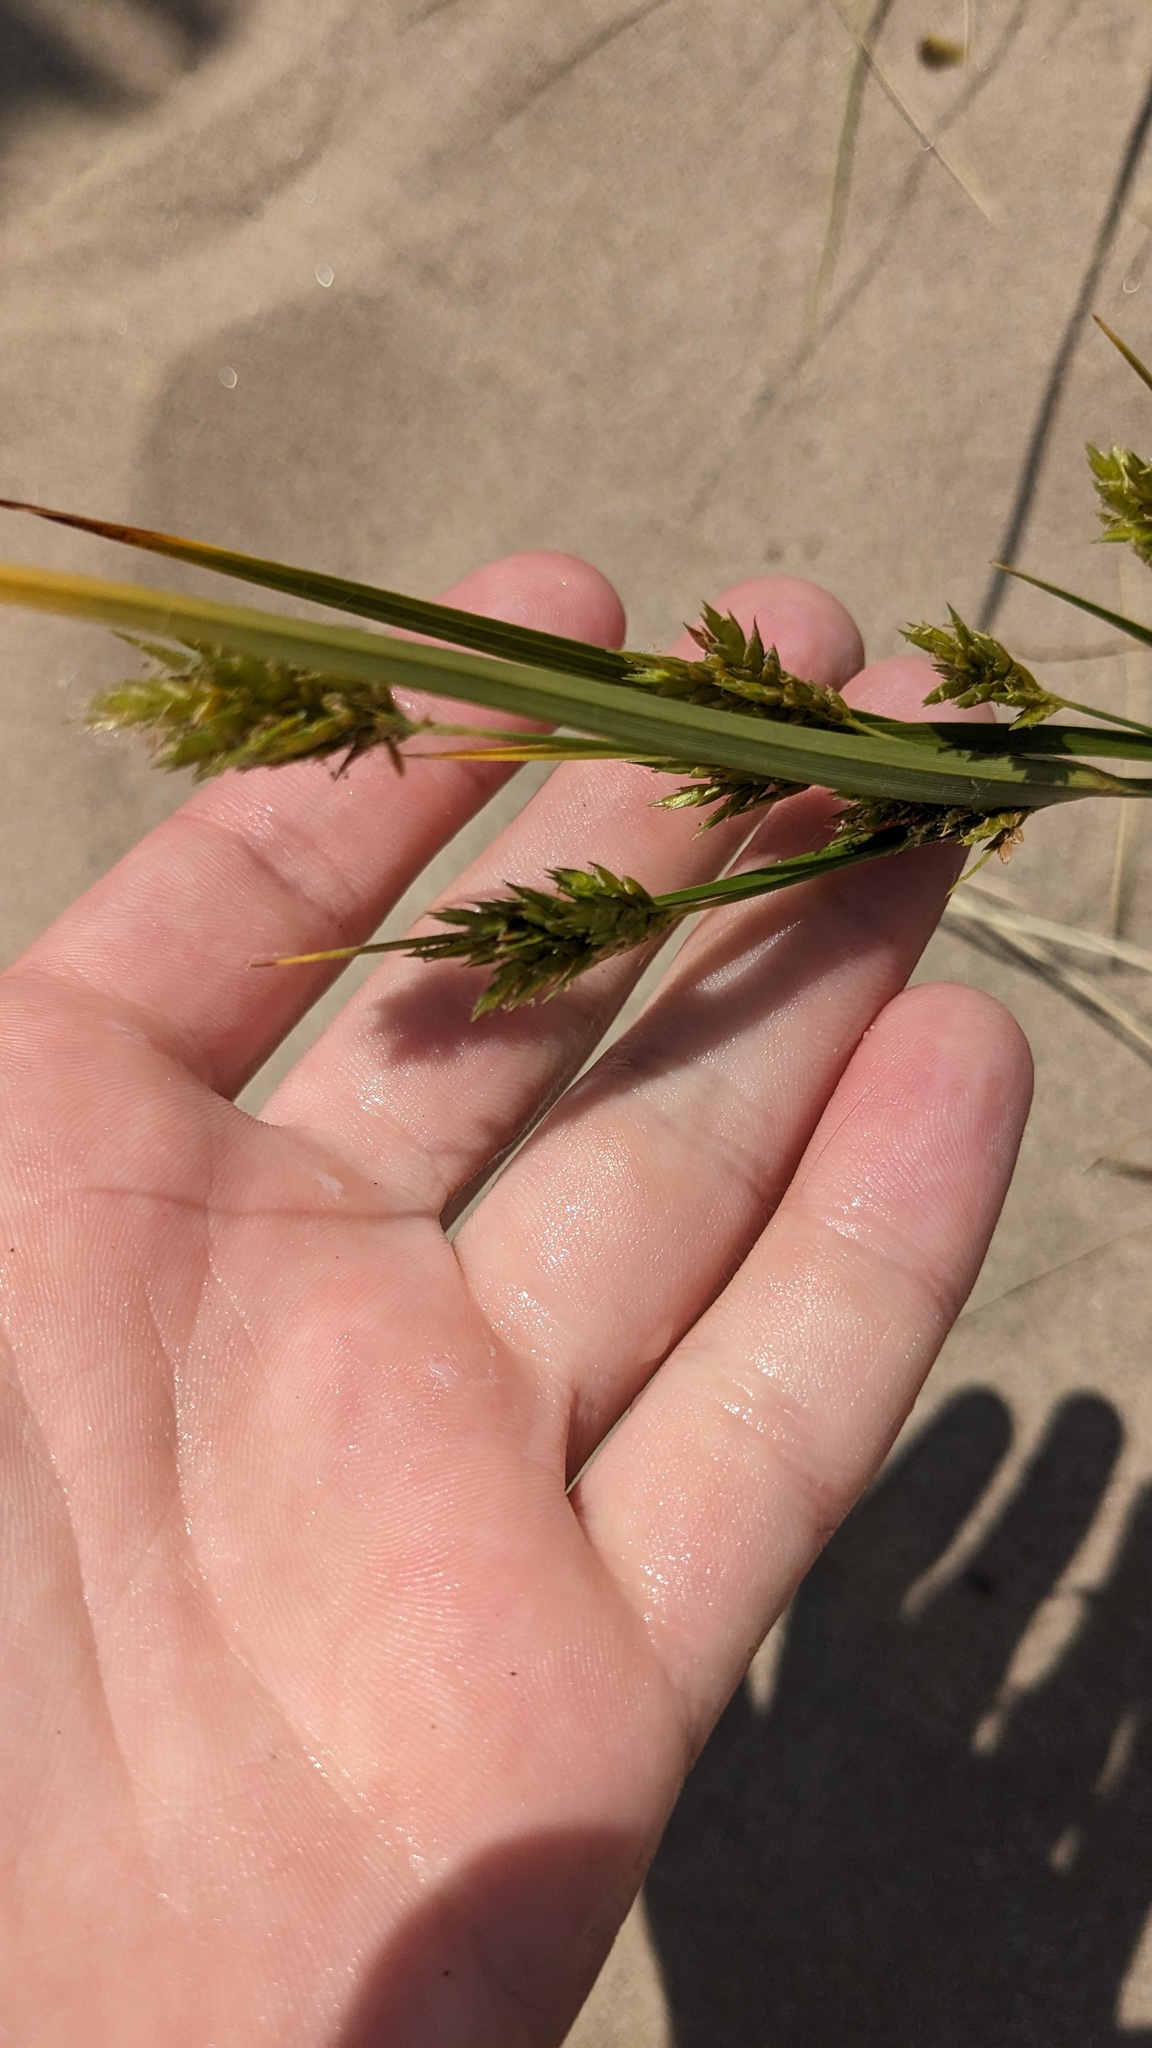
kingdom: Plantae
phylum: Tracheophyta
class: Liliopsida
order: Poales
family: Cyperaceae
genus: Cyperus
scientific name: Cyperus schweinitzii
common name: Schweinitz's cyperus
